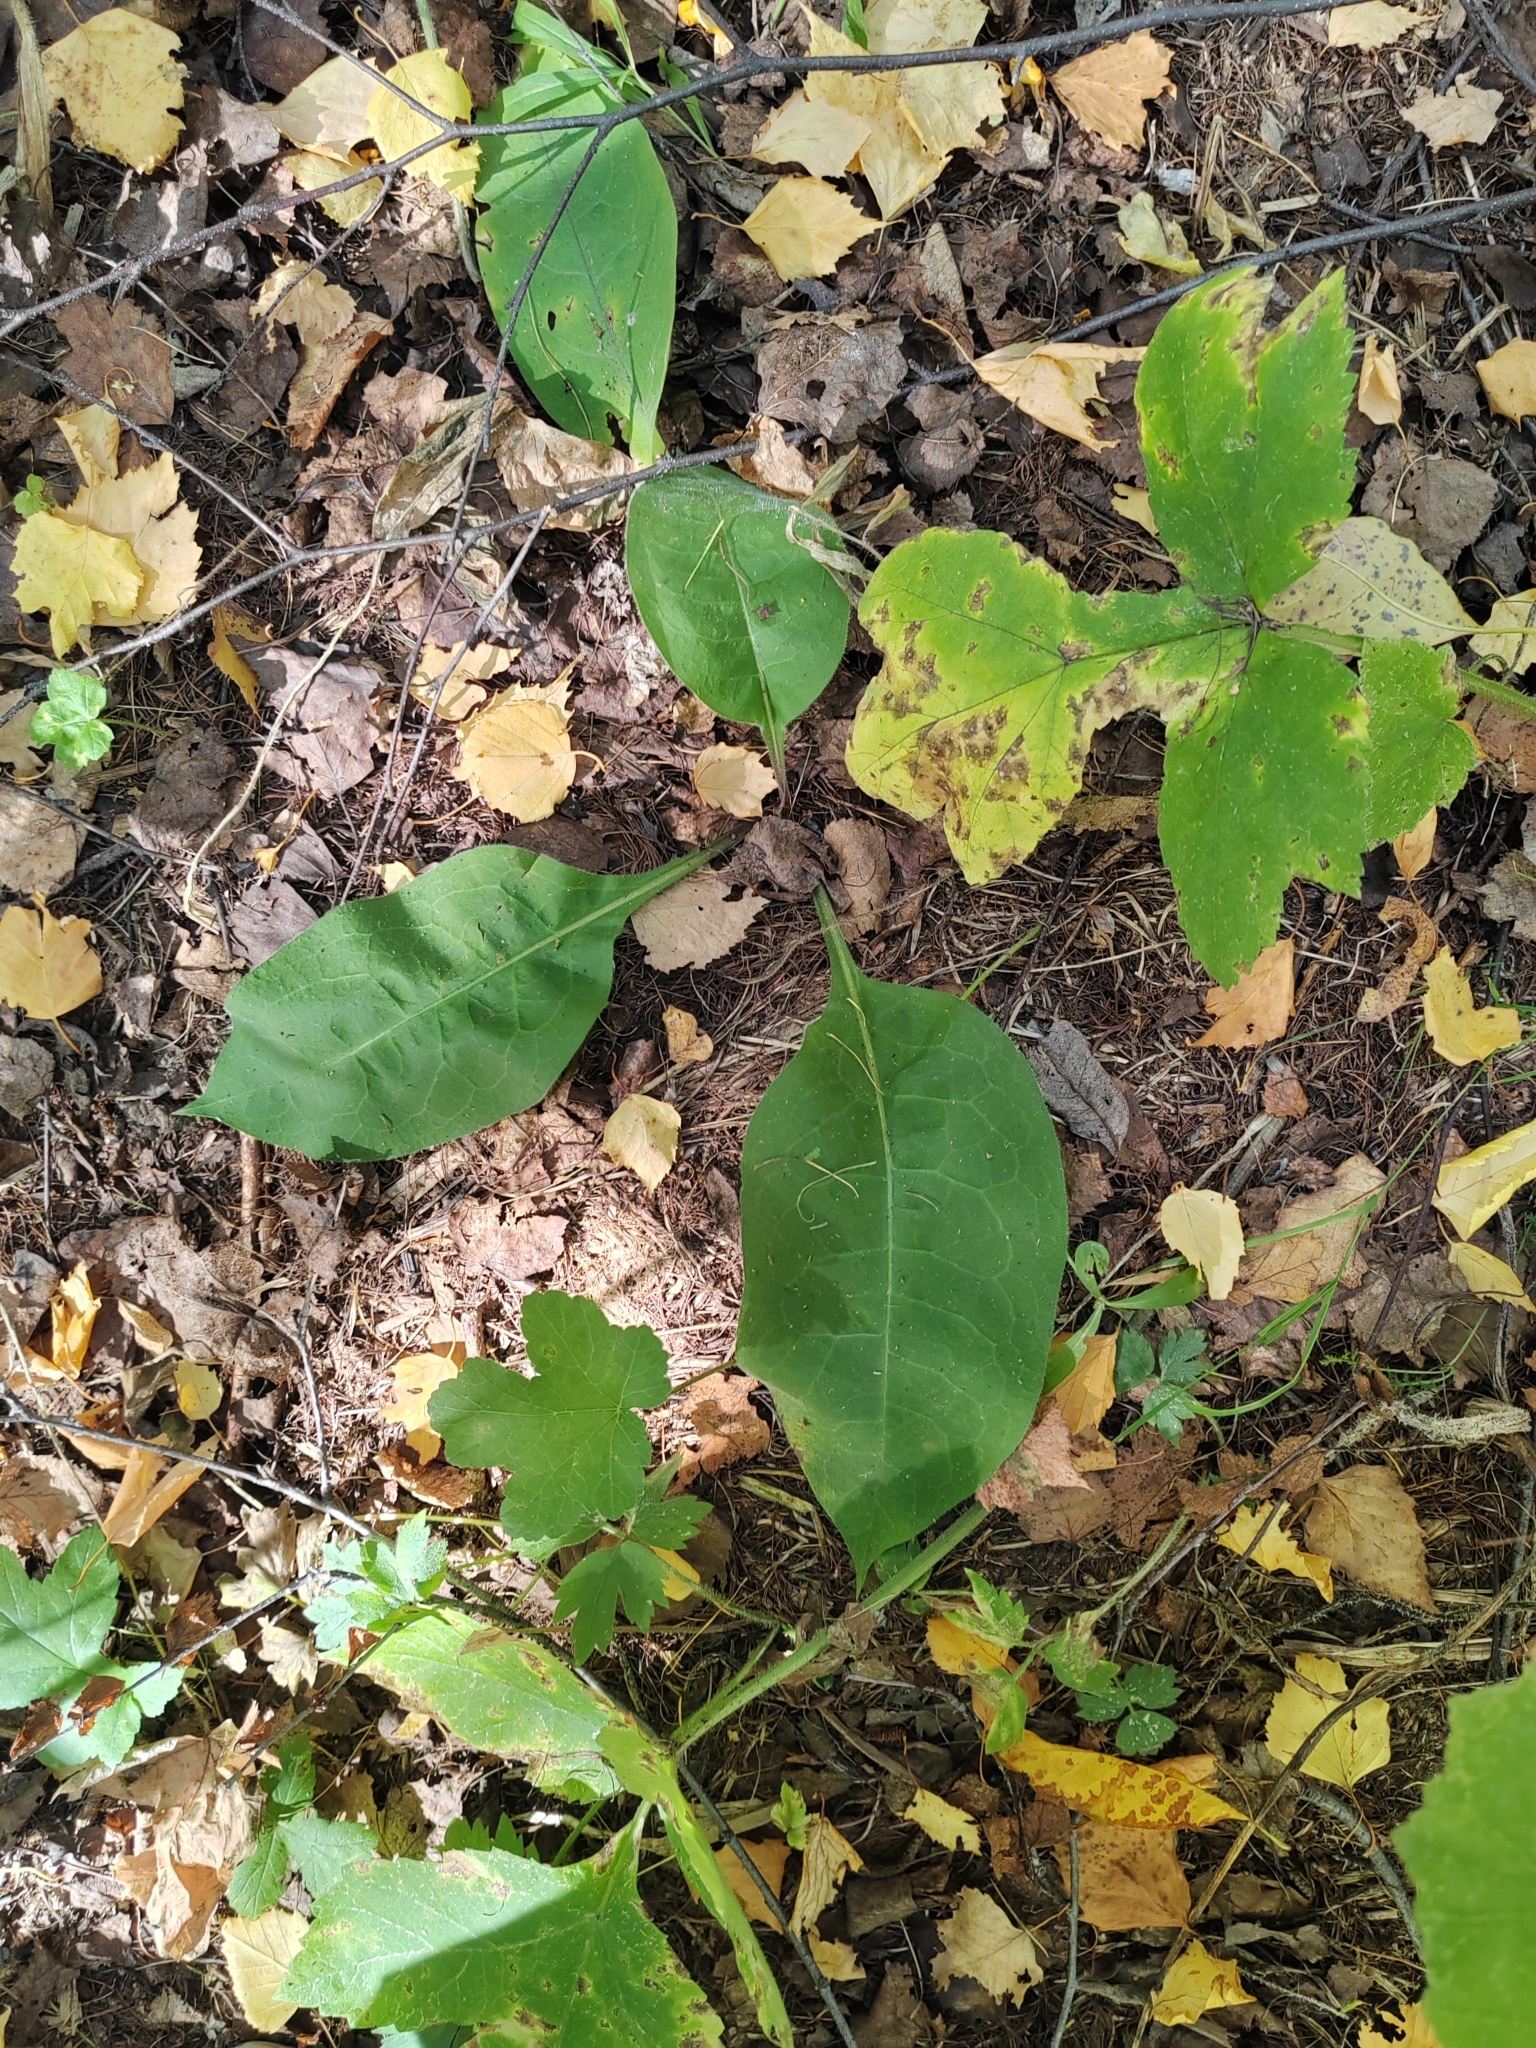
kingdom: Plantae
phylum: Tracheophyta
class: Magnoliopsida
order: Boraginales
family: Boraginaceae
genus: Pulmonaria
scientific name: Pulmonaria mollis
